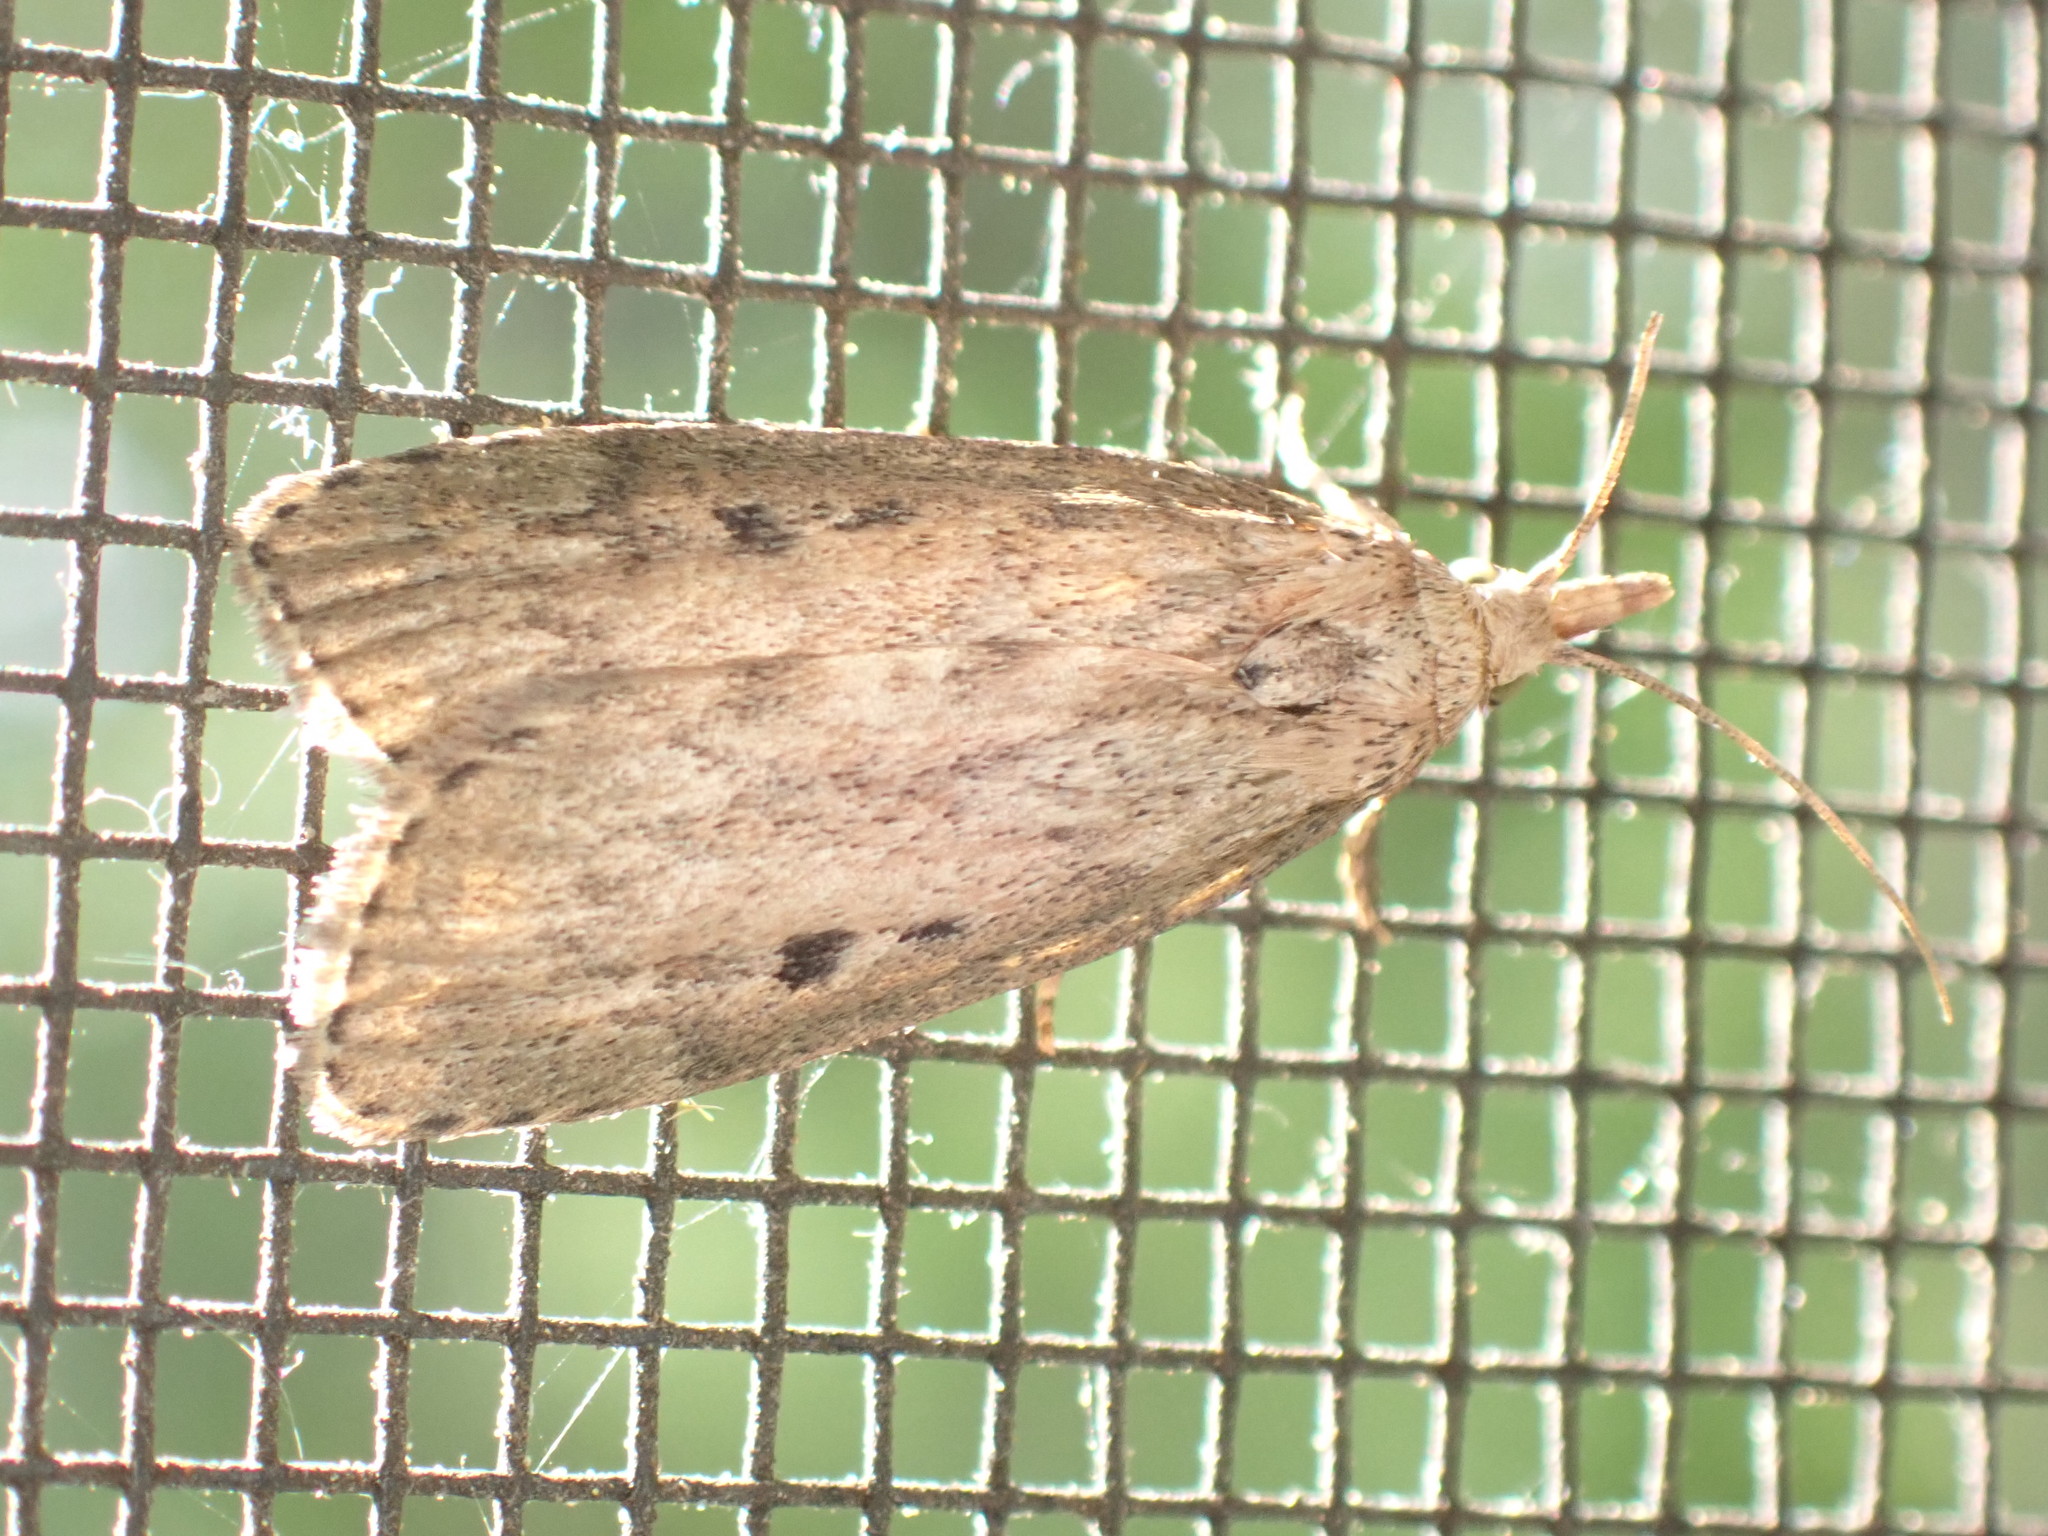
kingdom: Animalia
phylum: Arthropoda
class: Insecta
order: Lepidoptera
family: Pyralidae
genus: Aphomia
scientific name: Aphomia sociella
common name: Bee moth
